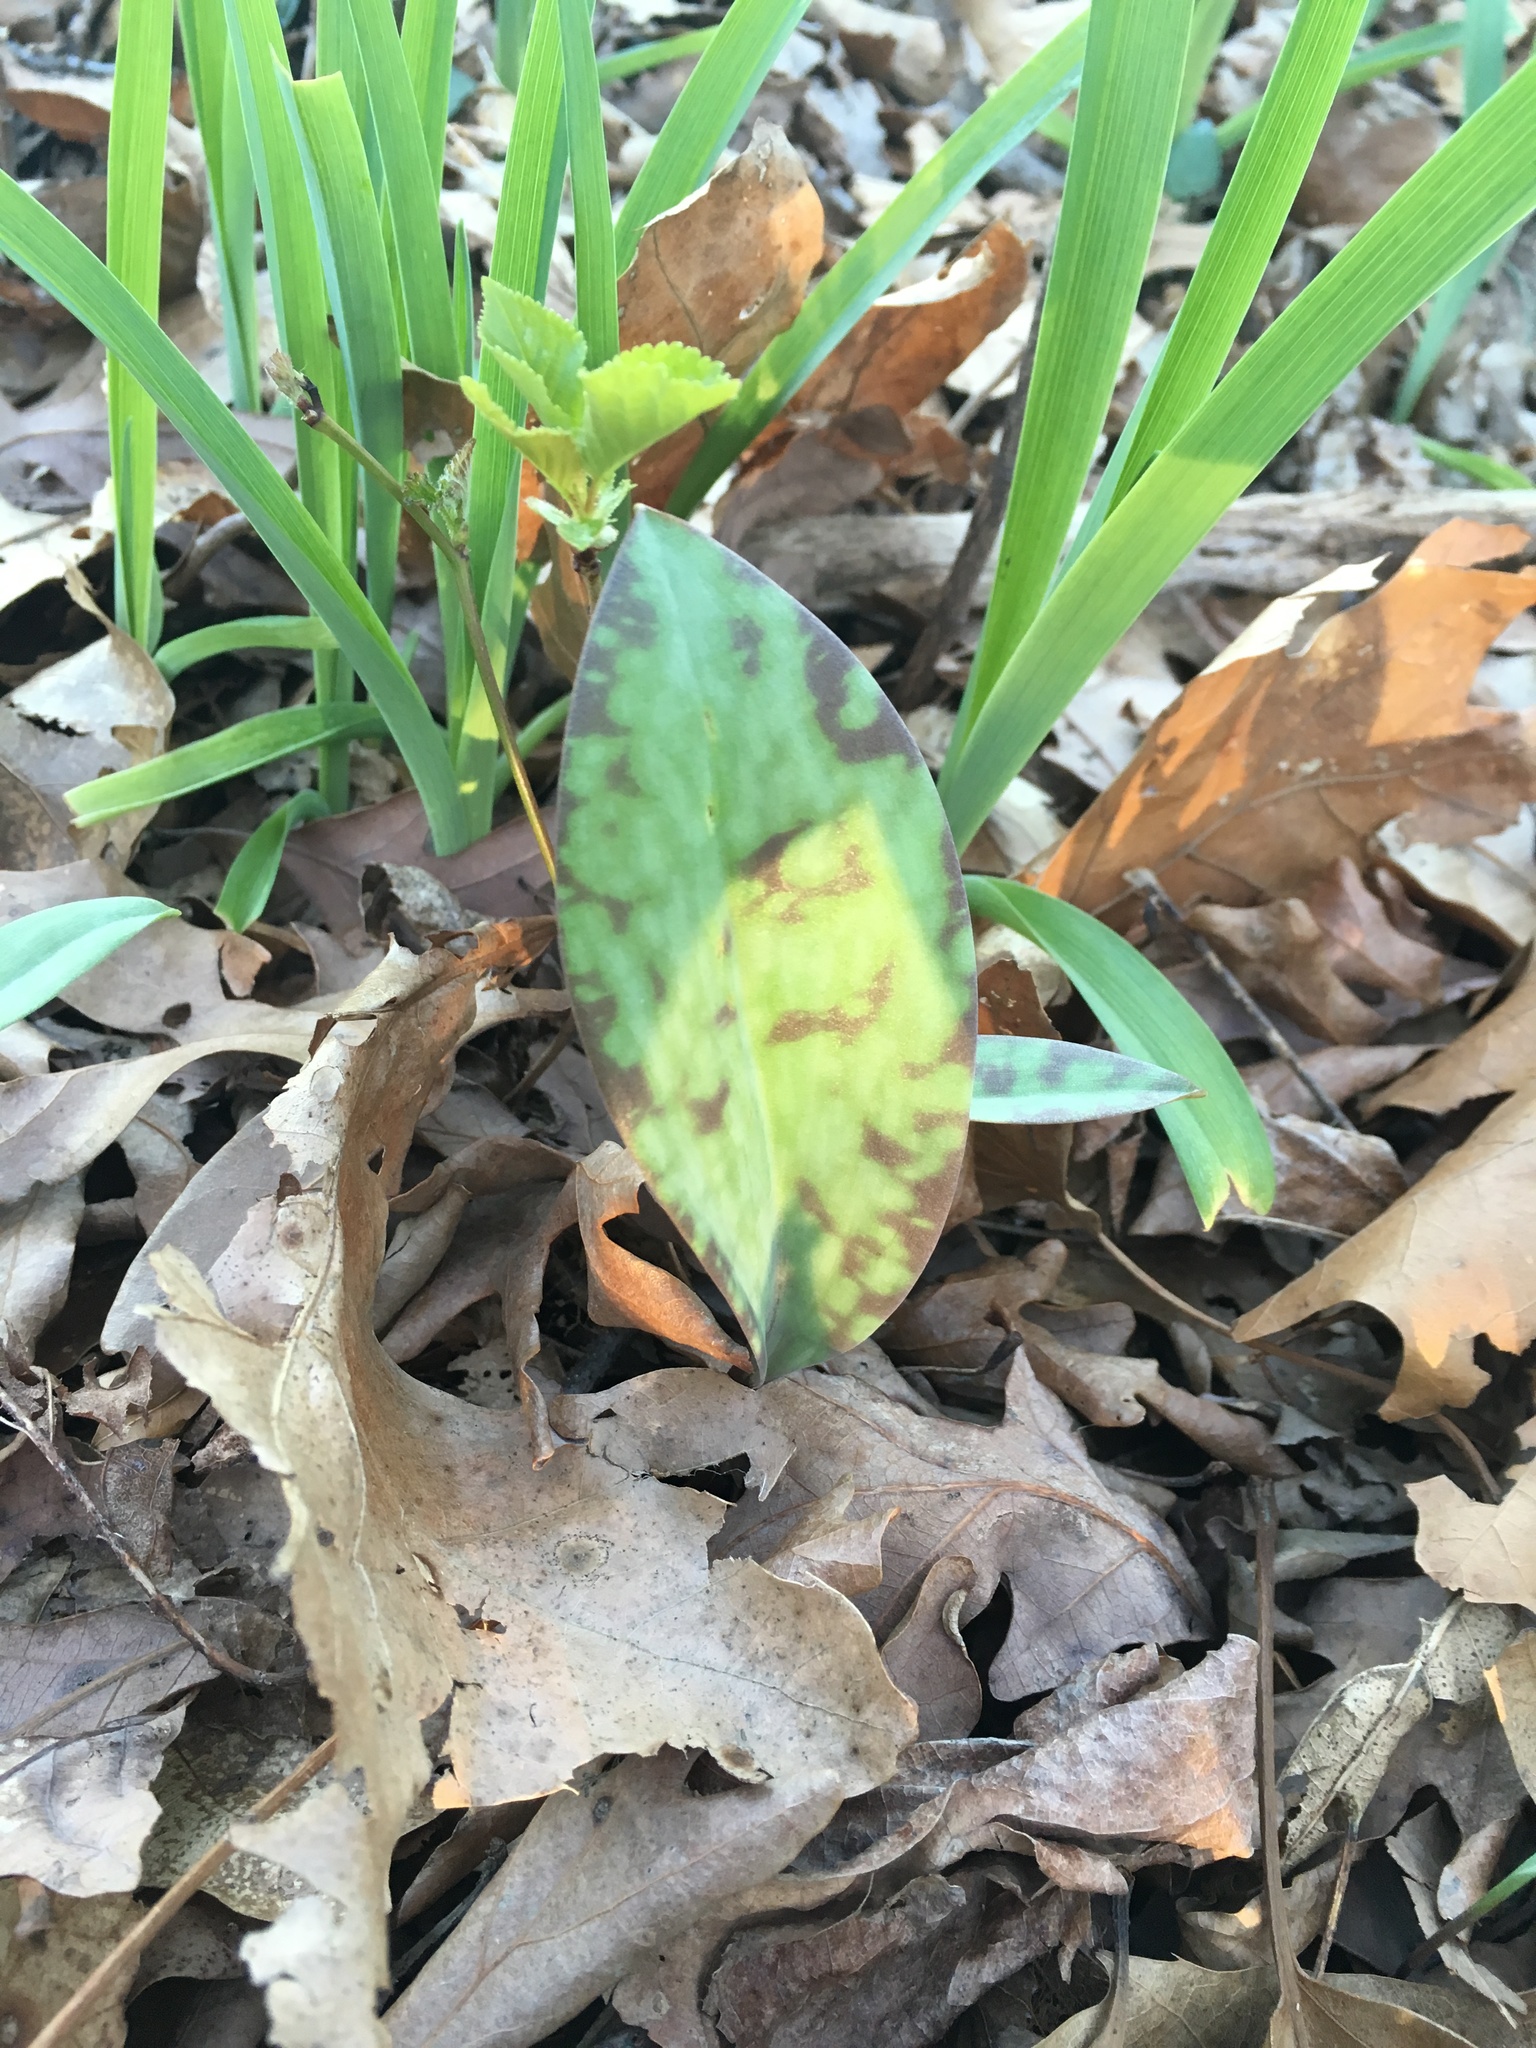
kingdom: Plantae
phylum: Tracheophyta
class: Liliopsida
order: Liliales
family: Liliaceae
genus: Erythronium
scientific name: Erythronium americanum
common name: Yellow adder's-tongue
